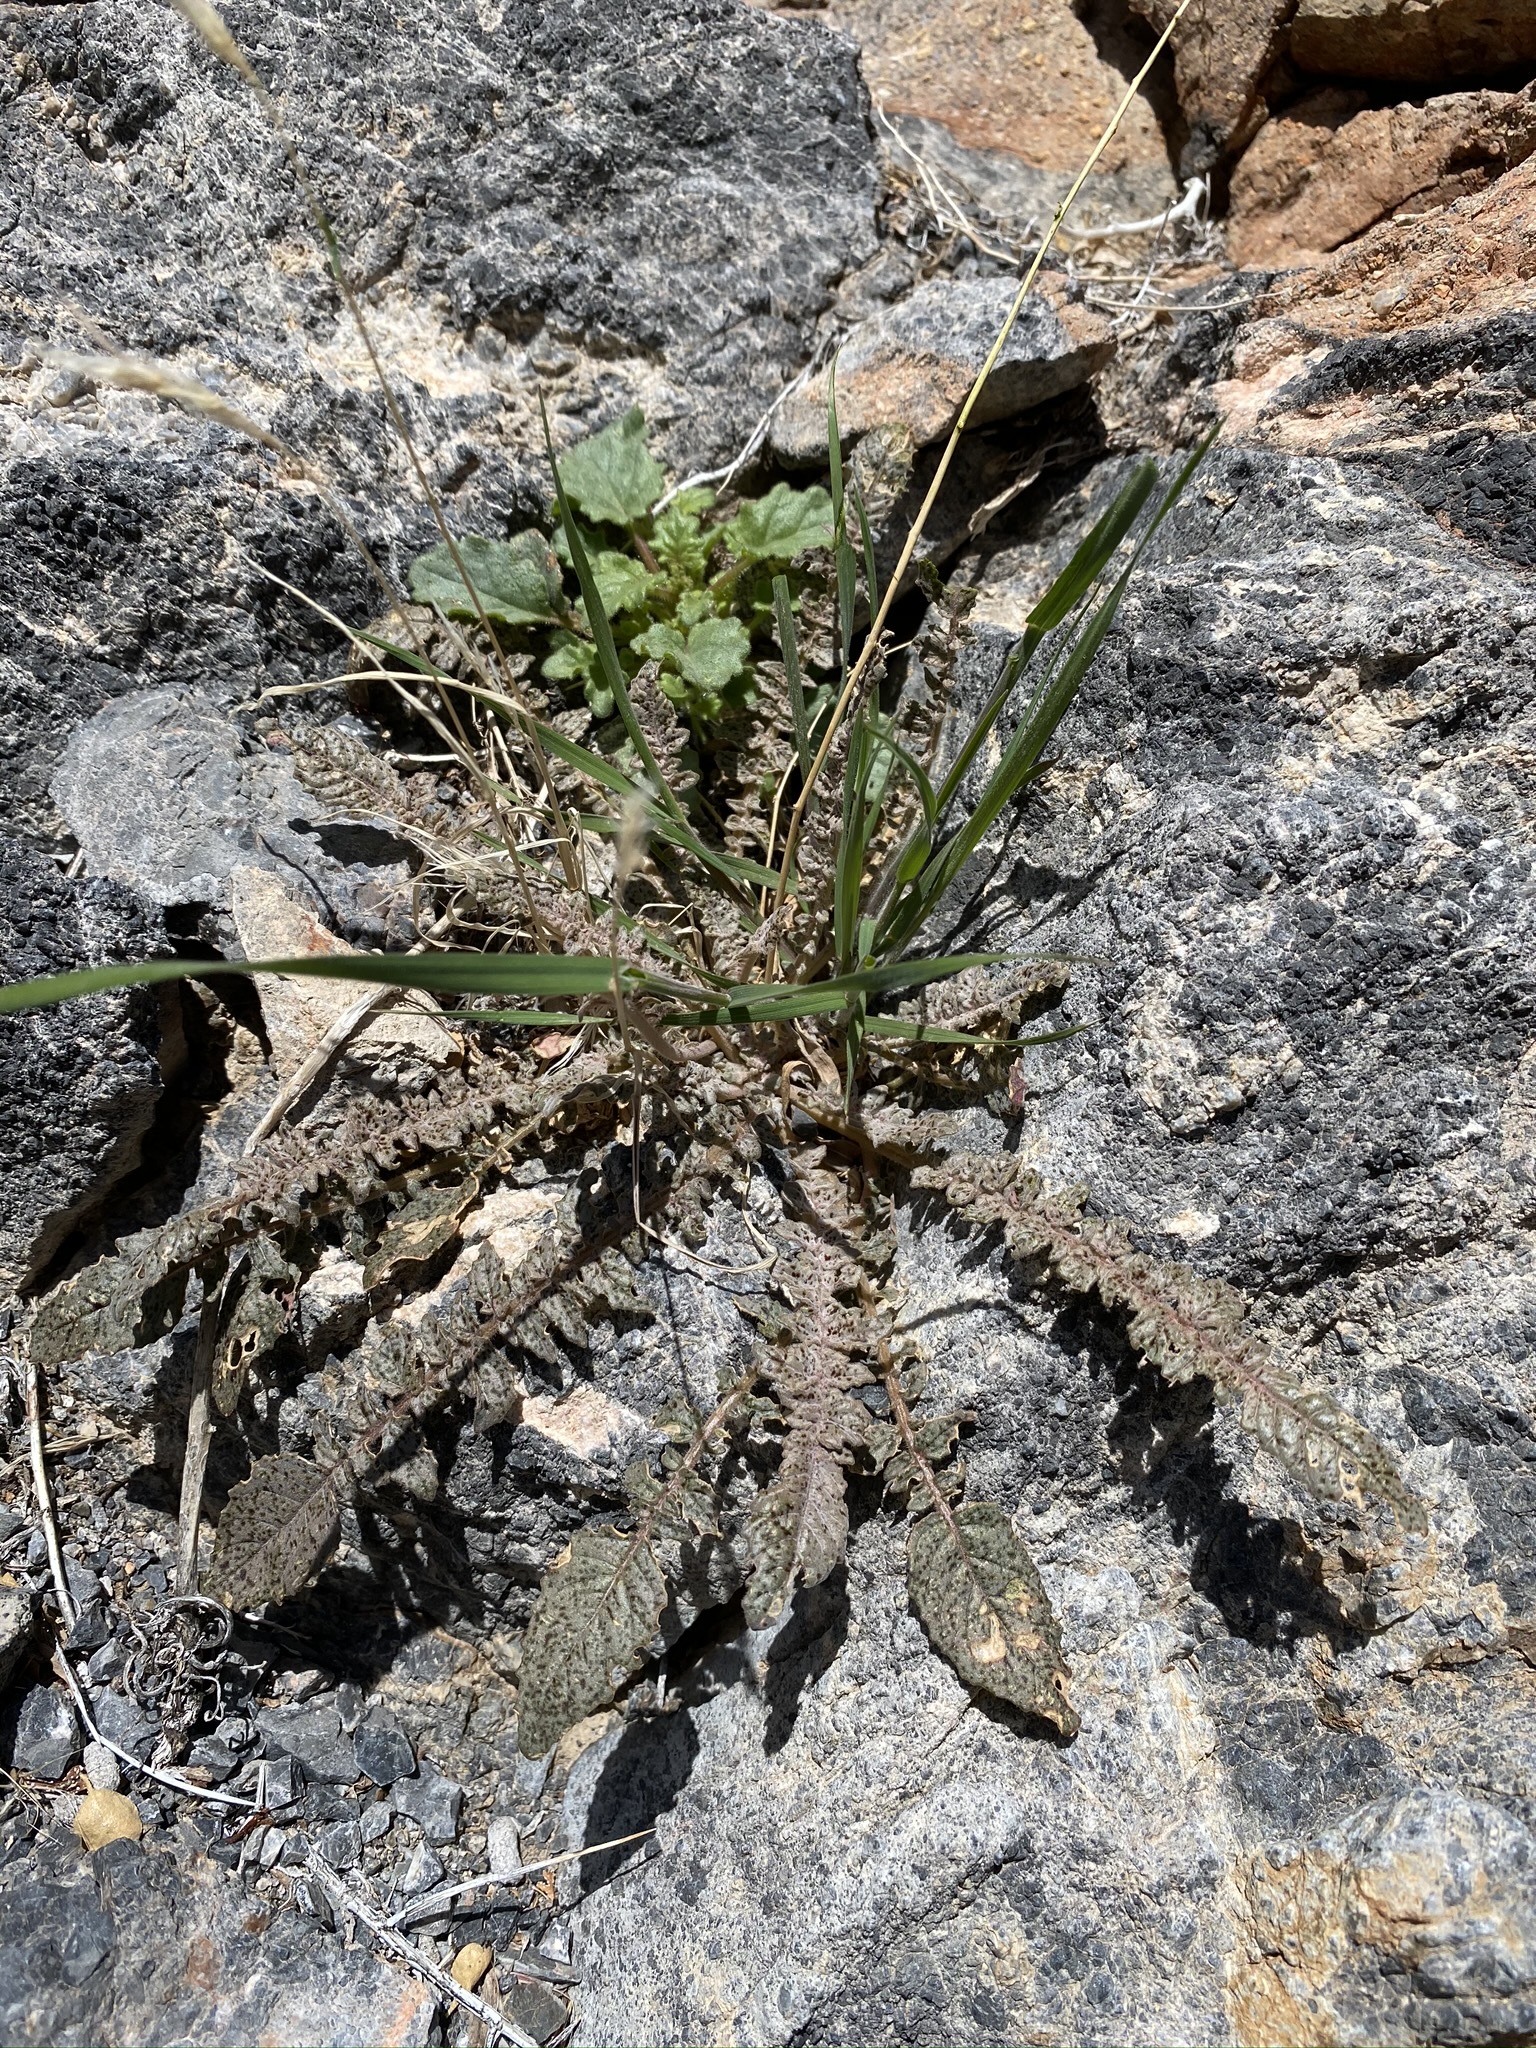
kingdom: Plantae
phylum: Tracheophyta
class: Magnoliopsida
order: Myrtales
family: Onagraceae
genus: Chylismia
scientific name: Chylismia walkeri
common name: Walker's suncup
